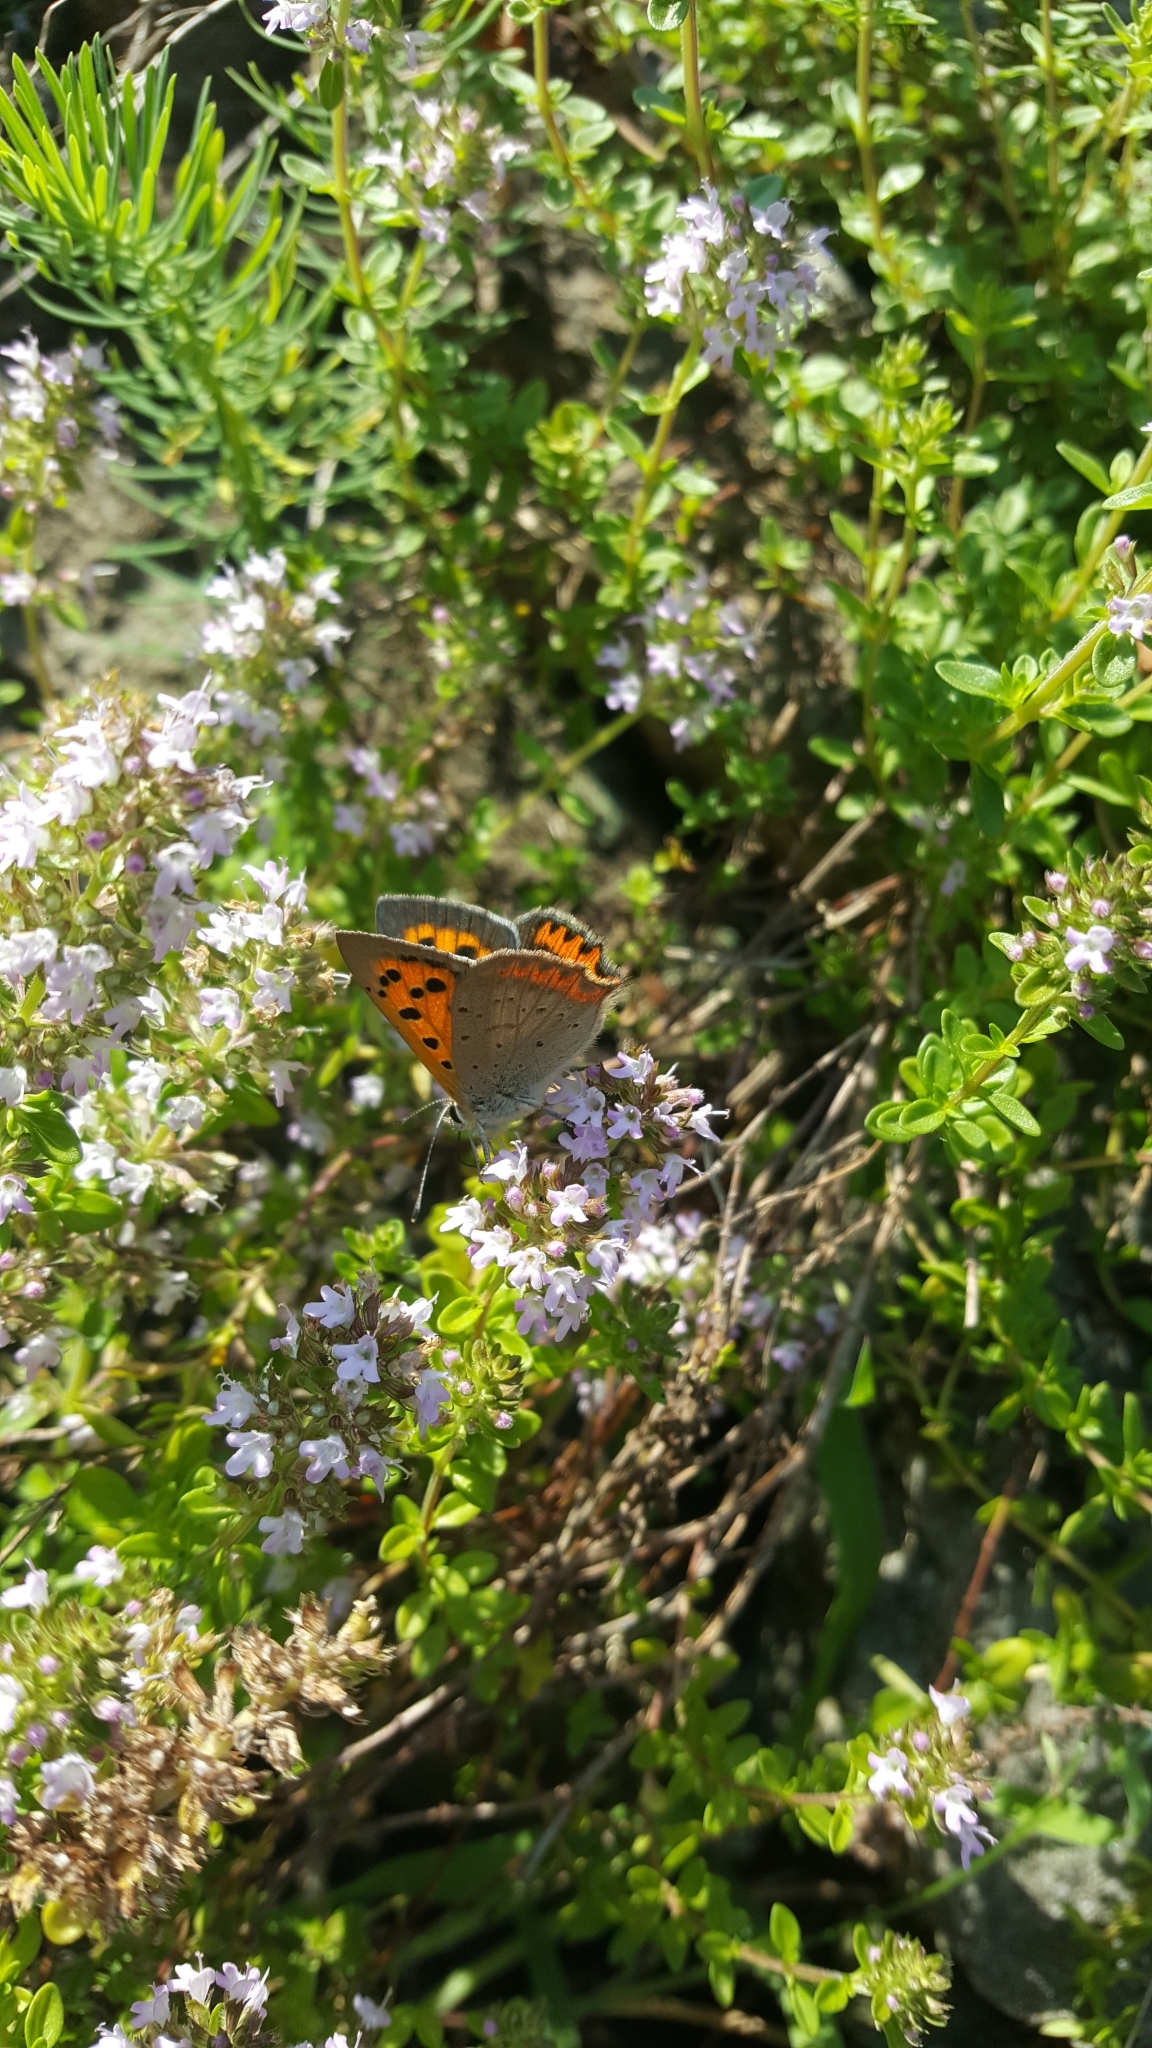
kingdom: Animalia
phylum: Arthropoda
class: Insecta
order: Lepidoptera
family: Lycaenidae
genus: Lycaena
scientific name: Lycaena phlaeas
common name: Small copper
